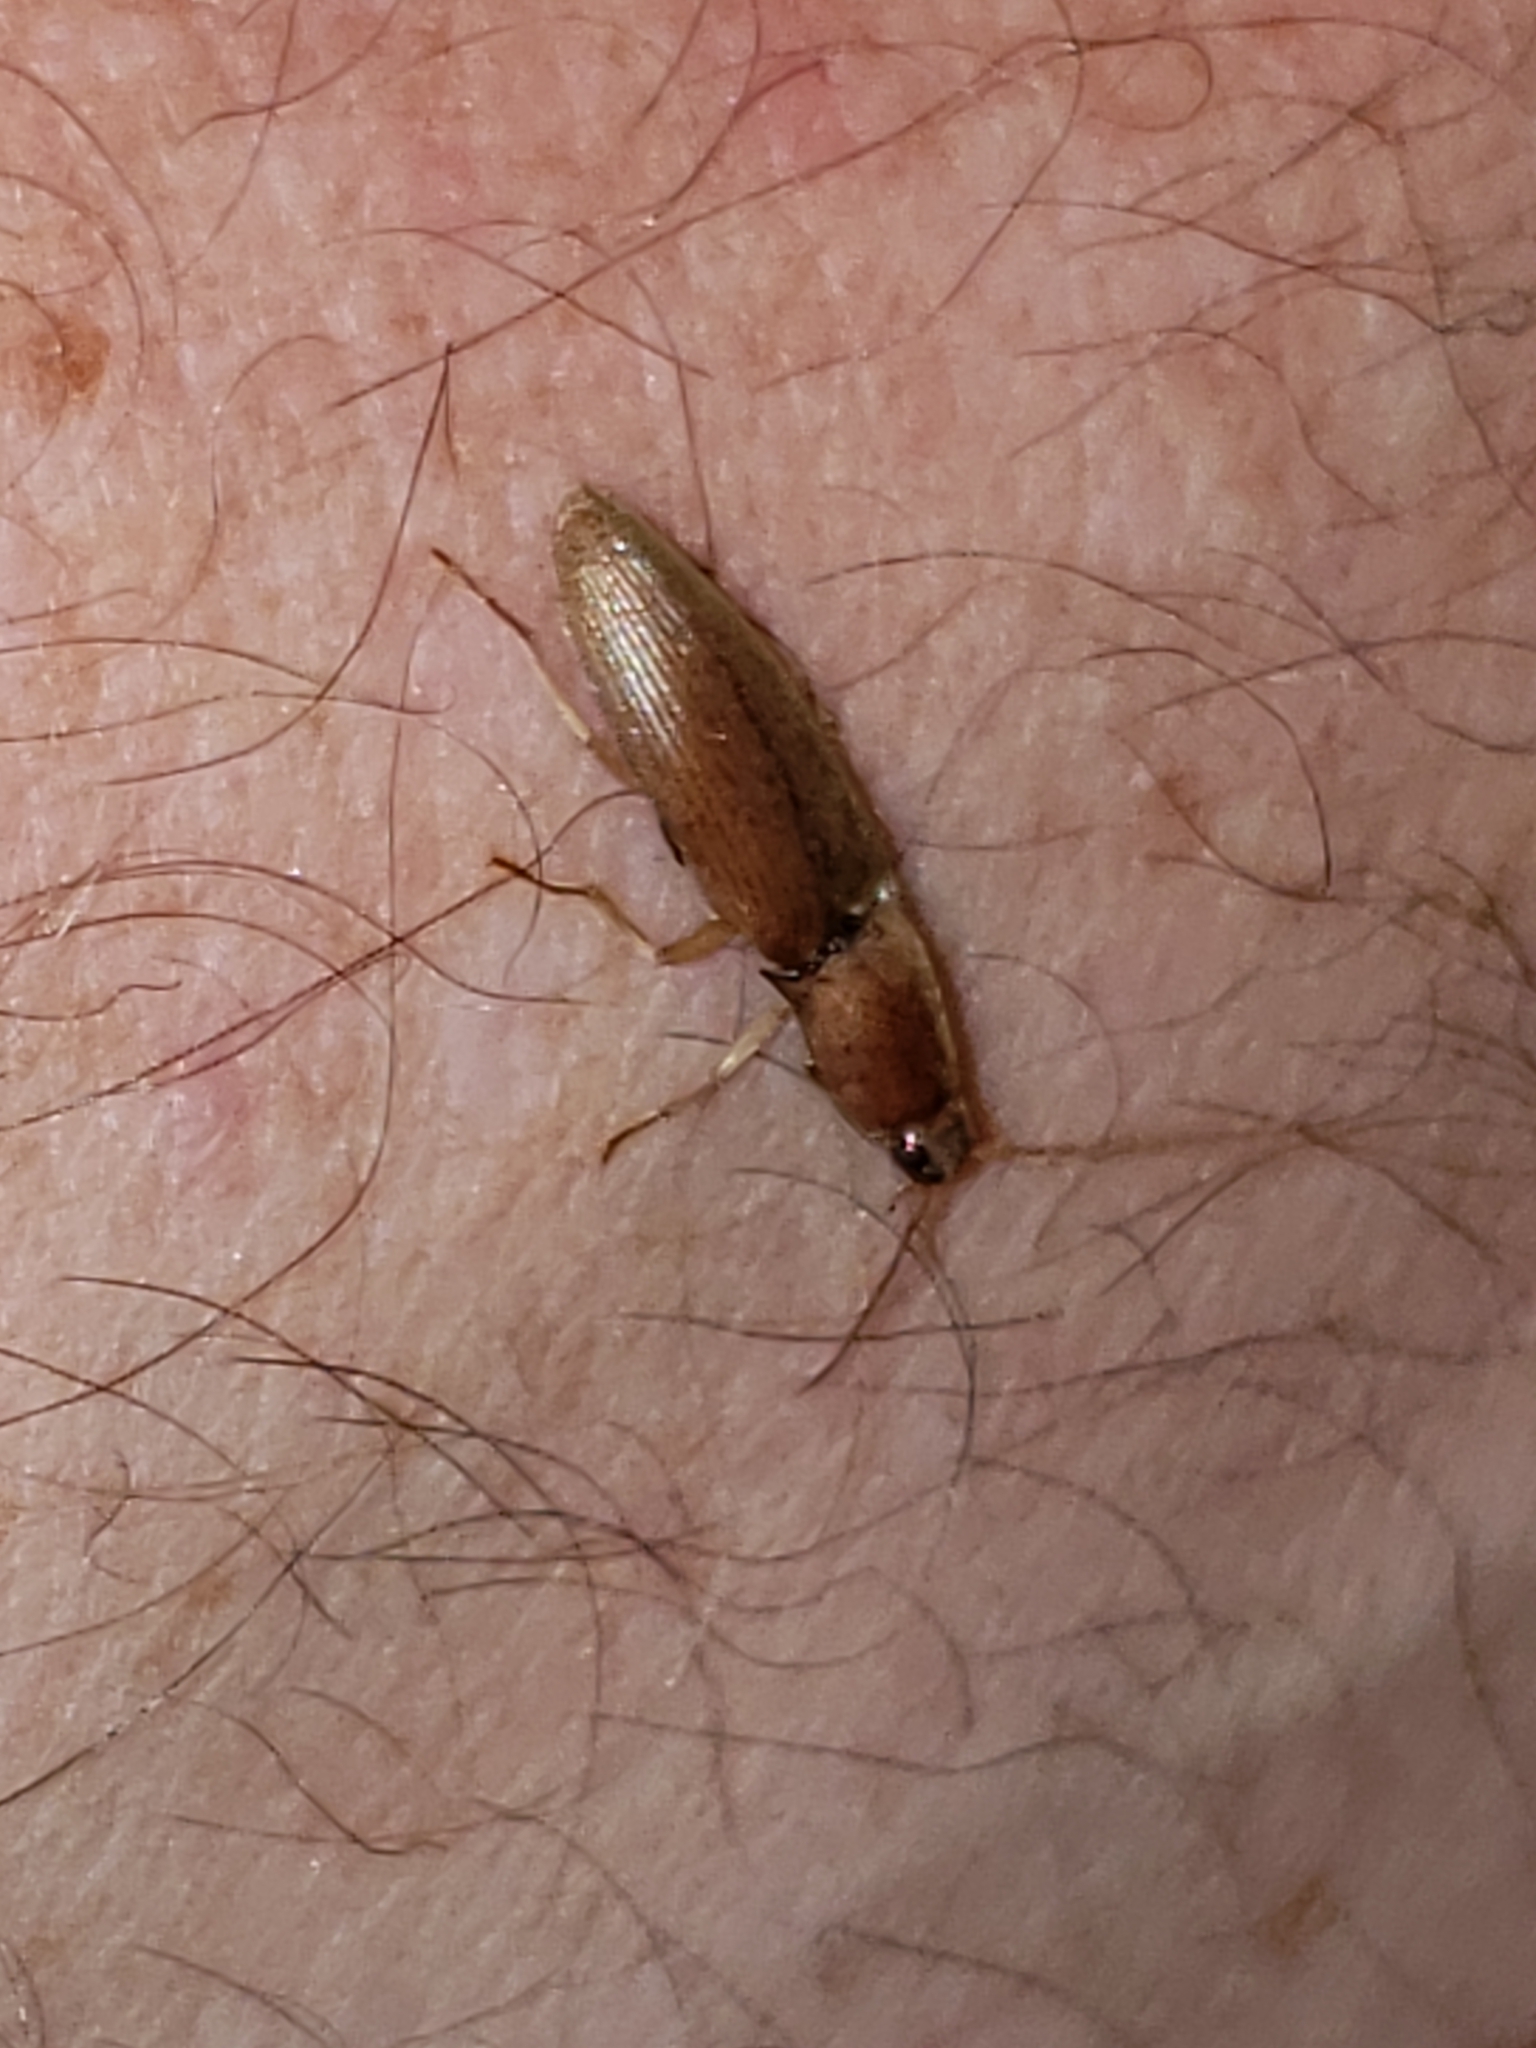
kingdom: Animalia
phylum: Arthropoda
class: Insecta
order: Coleoptera
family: Elateridae
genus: Monocrepidius
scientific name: Monocrepidius lividus
